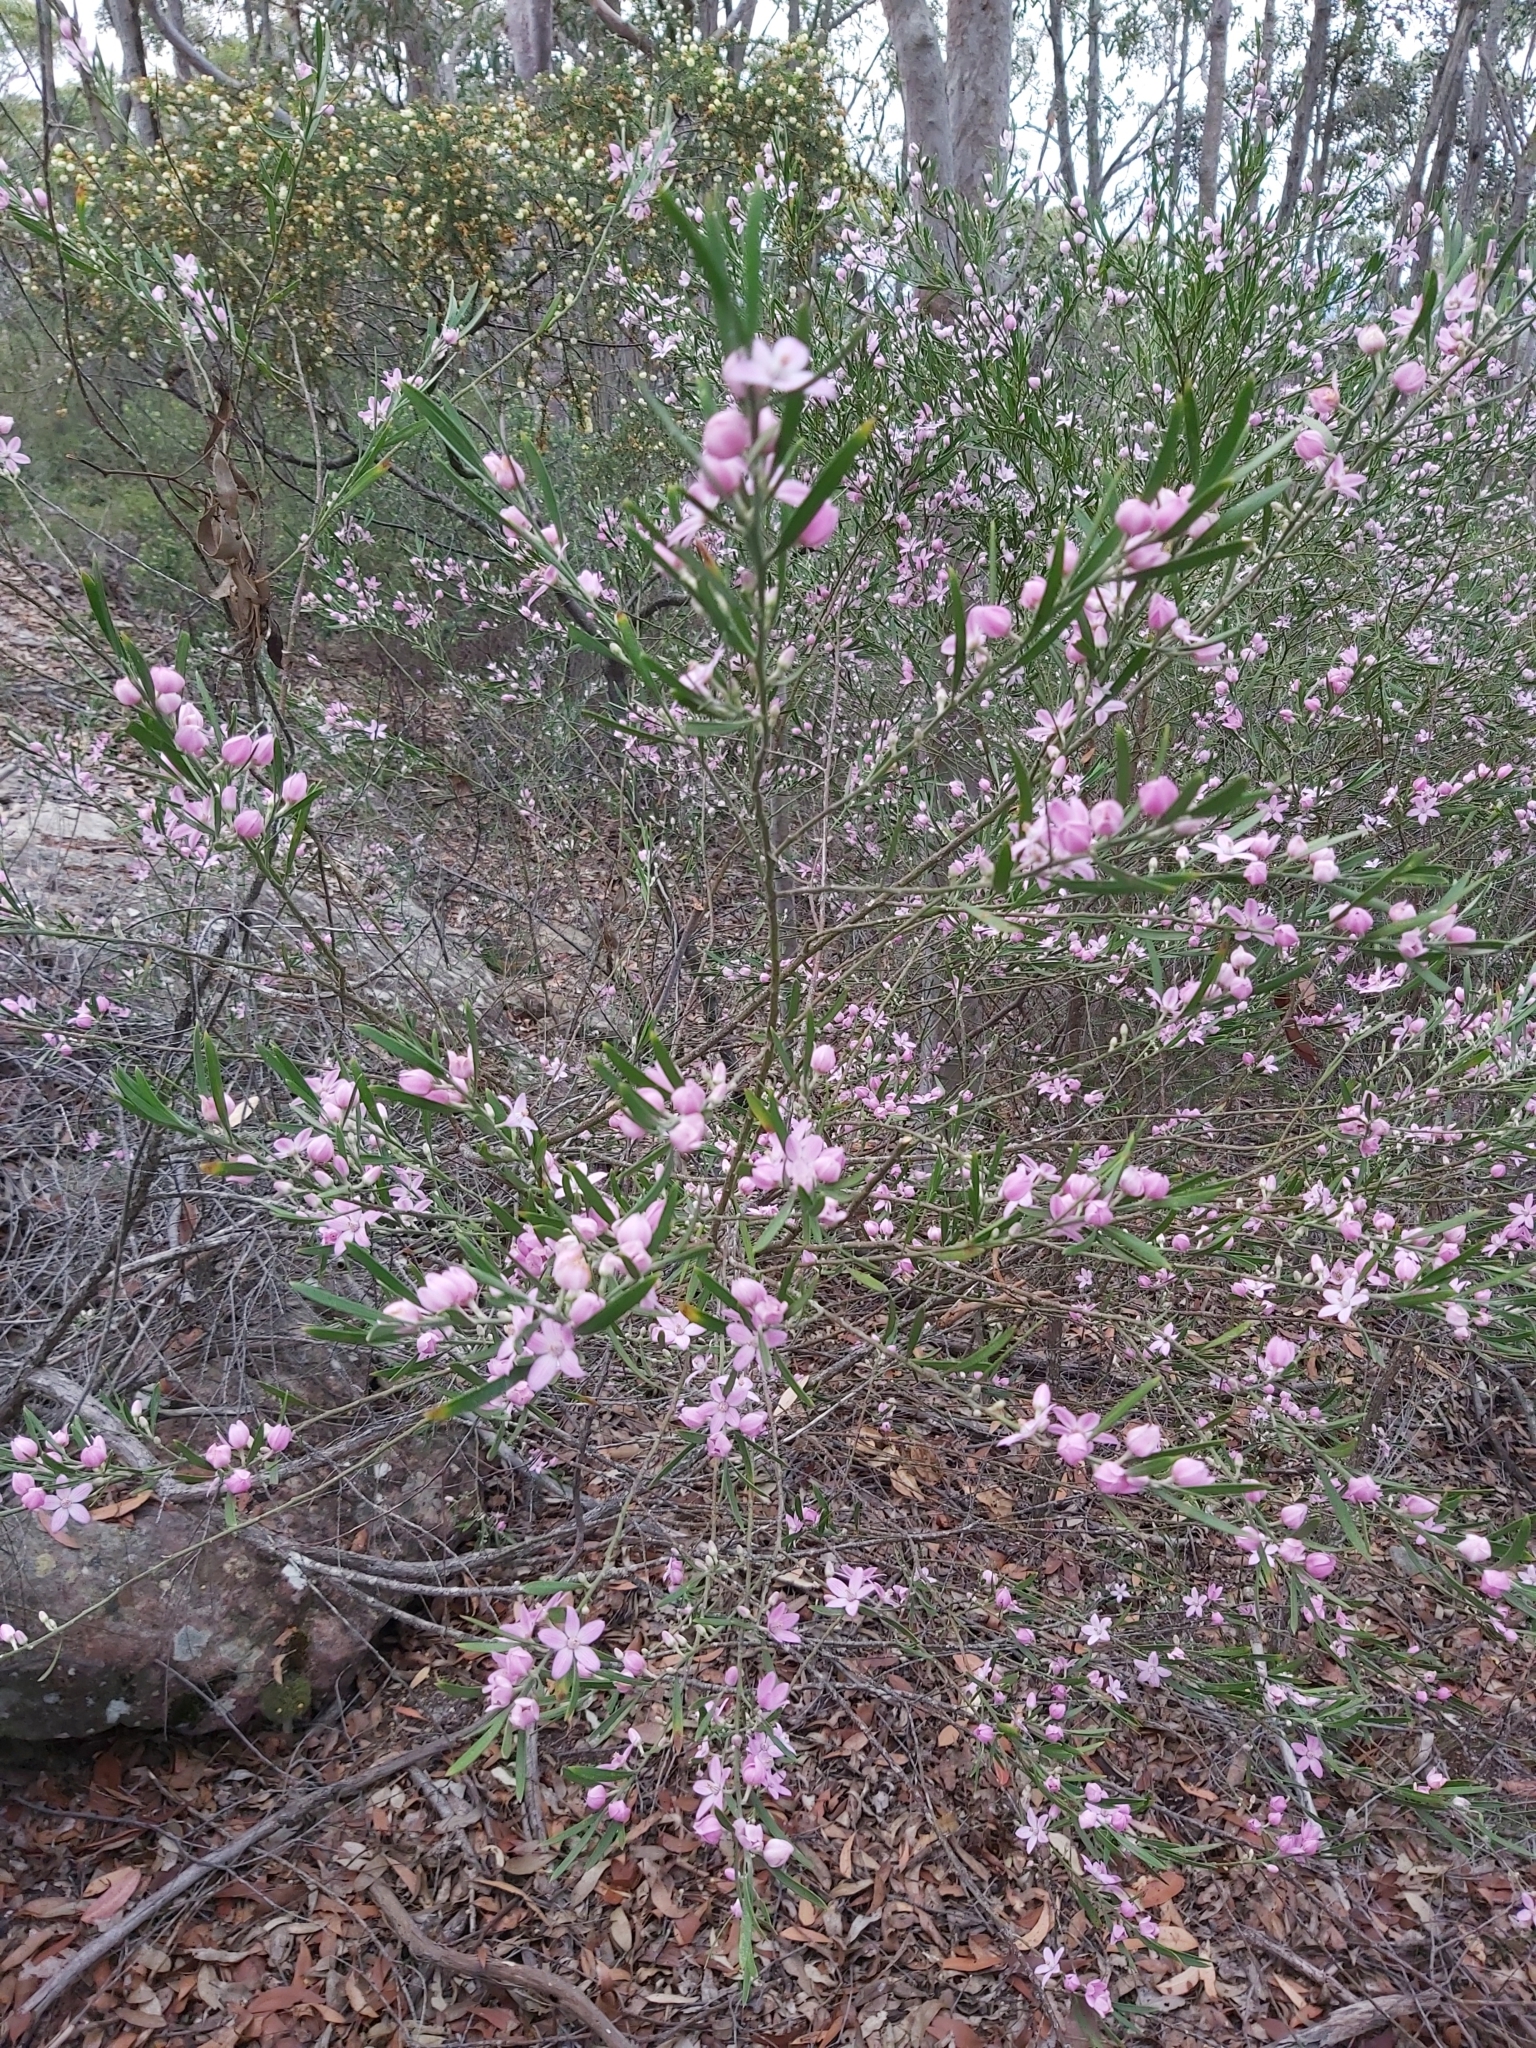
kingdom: Plantae
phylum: Tracheophyta
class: Magnoliopsida
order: Sapindales
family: Rutaceae
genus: Eriostemon
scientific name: Eriostemon australasius
